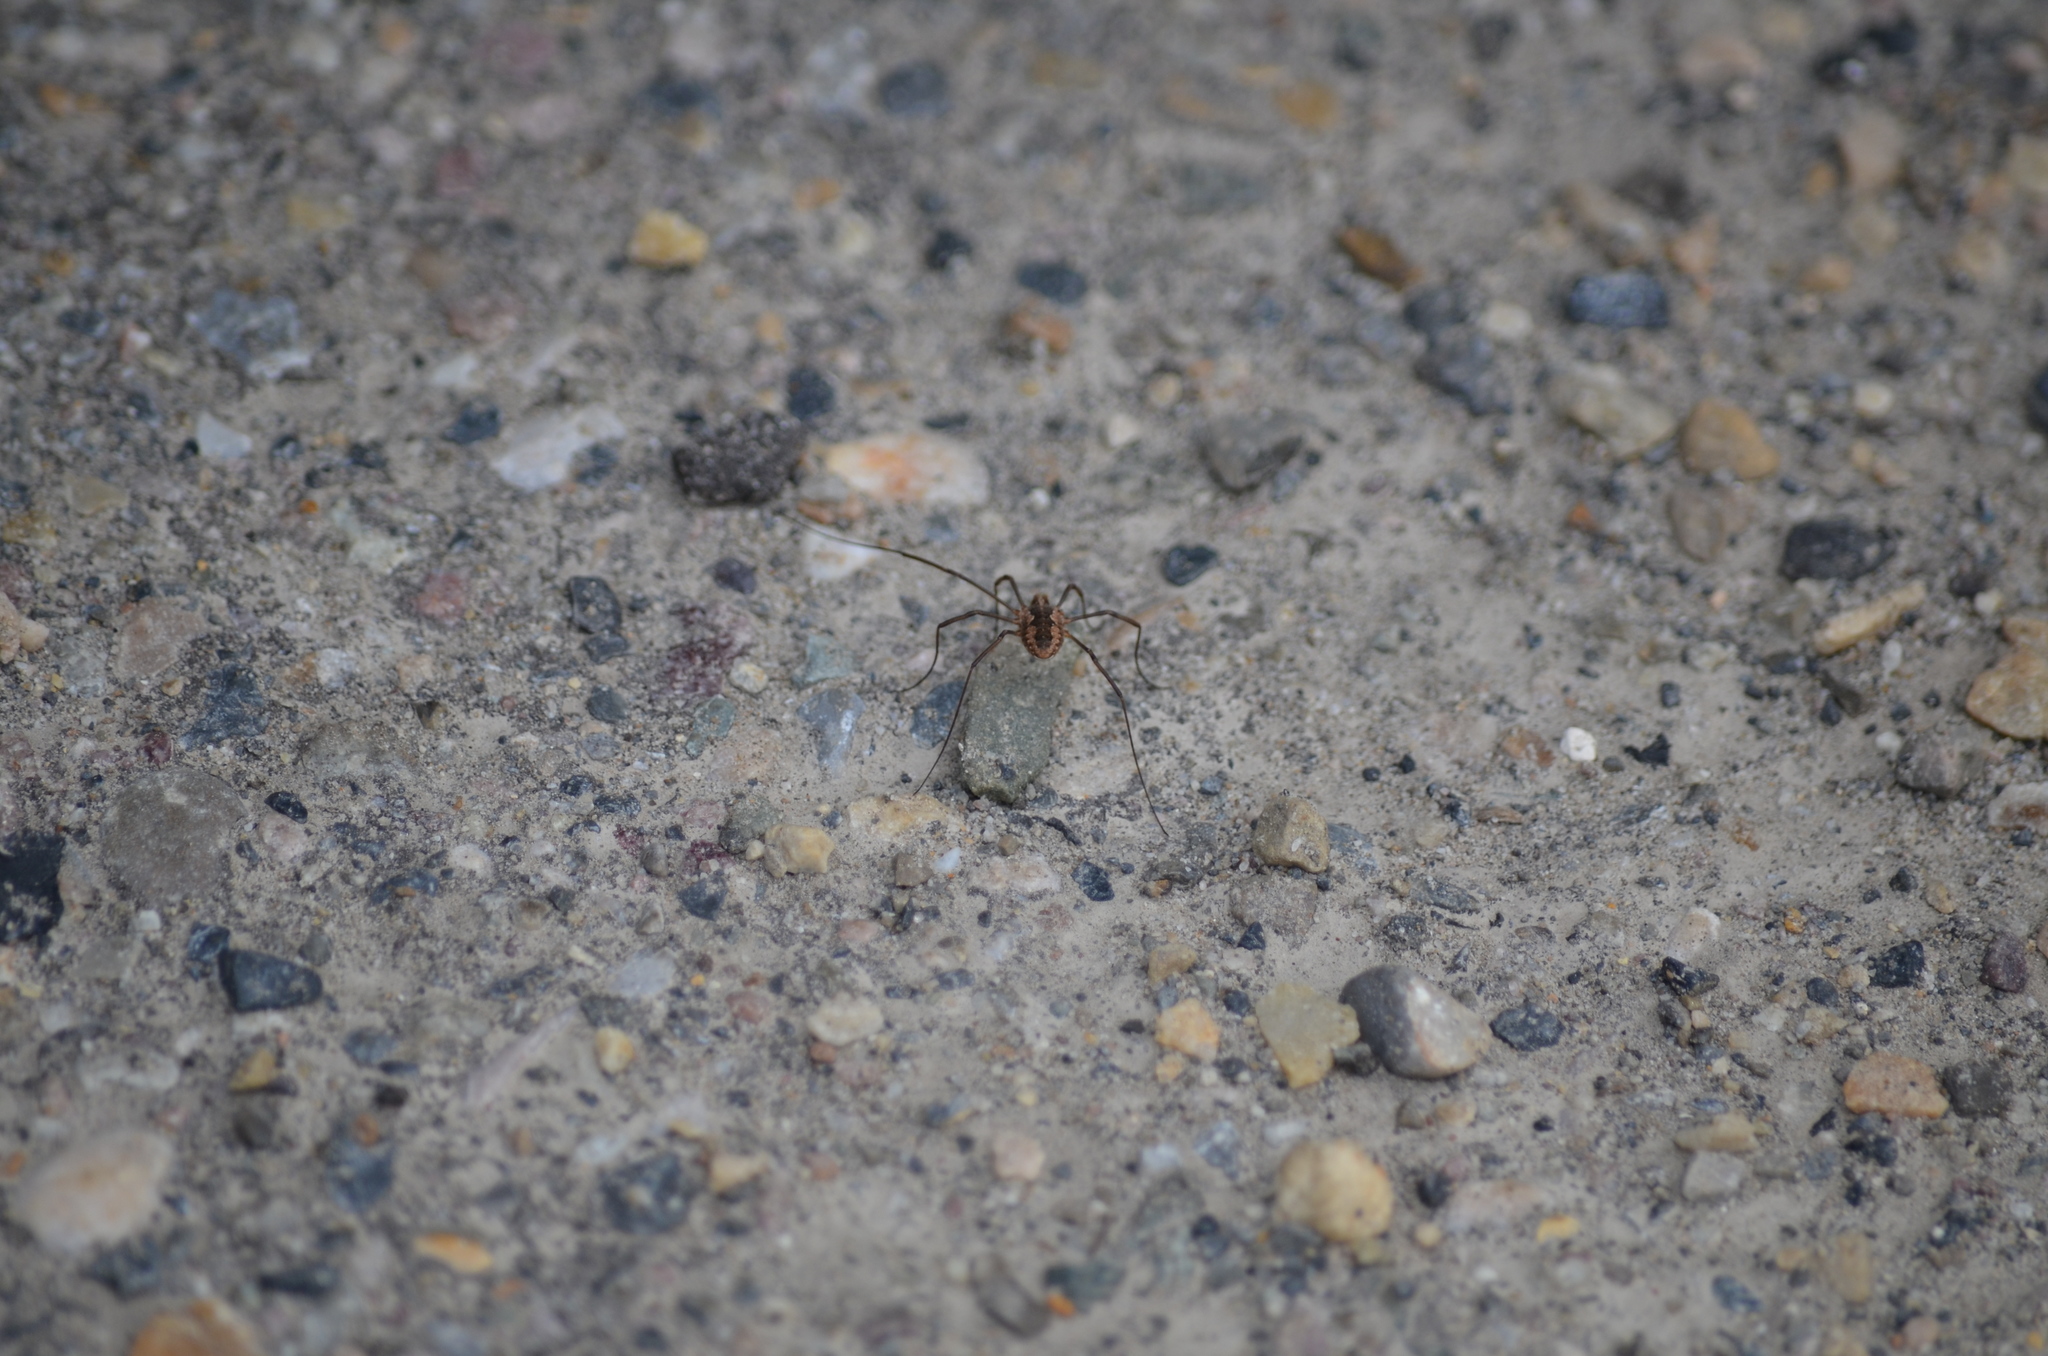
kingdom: Animalia
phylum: Arthropoda
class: Arachnida
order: Opiliones
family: Phalangiidae
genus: Phalangium
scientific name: Phalangium opilio
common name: Daddy longleg
